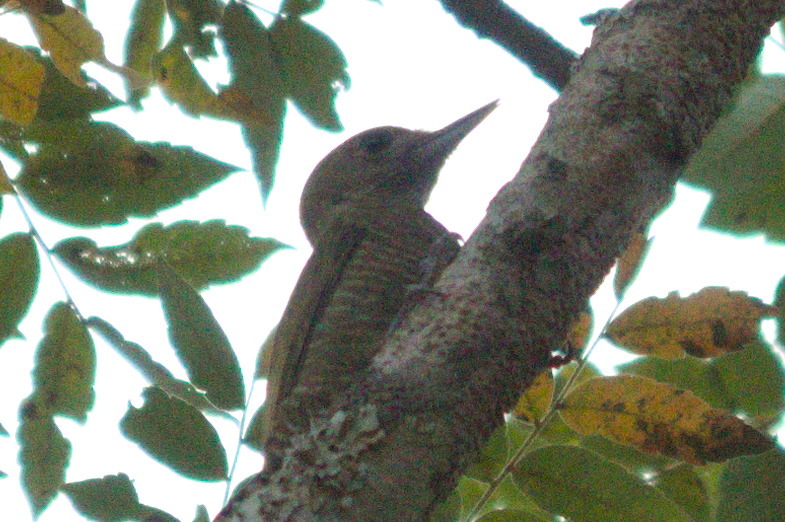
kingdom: Animalia
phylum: Chordata
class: Aves
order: Piciformes
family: Picidae
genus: Veniliornis
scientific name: Veniliornis passerinus
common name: Little woodpecker
